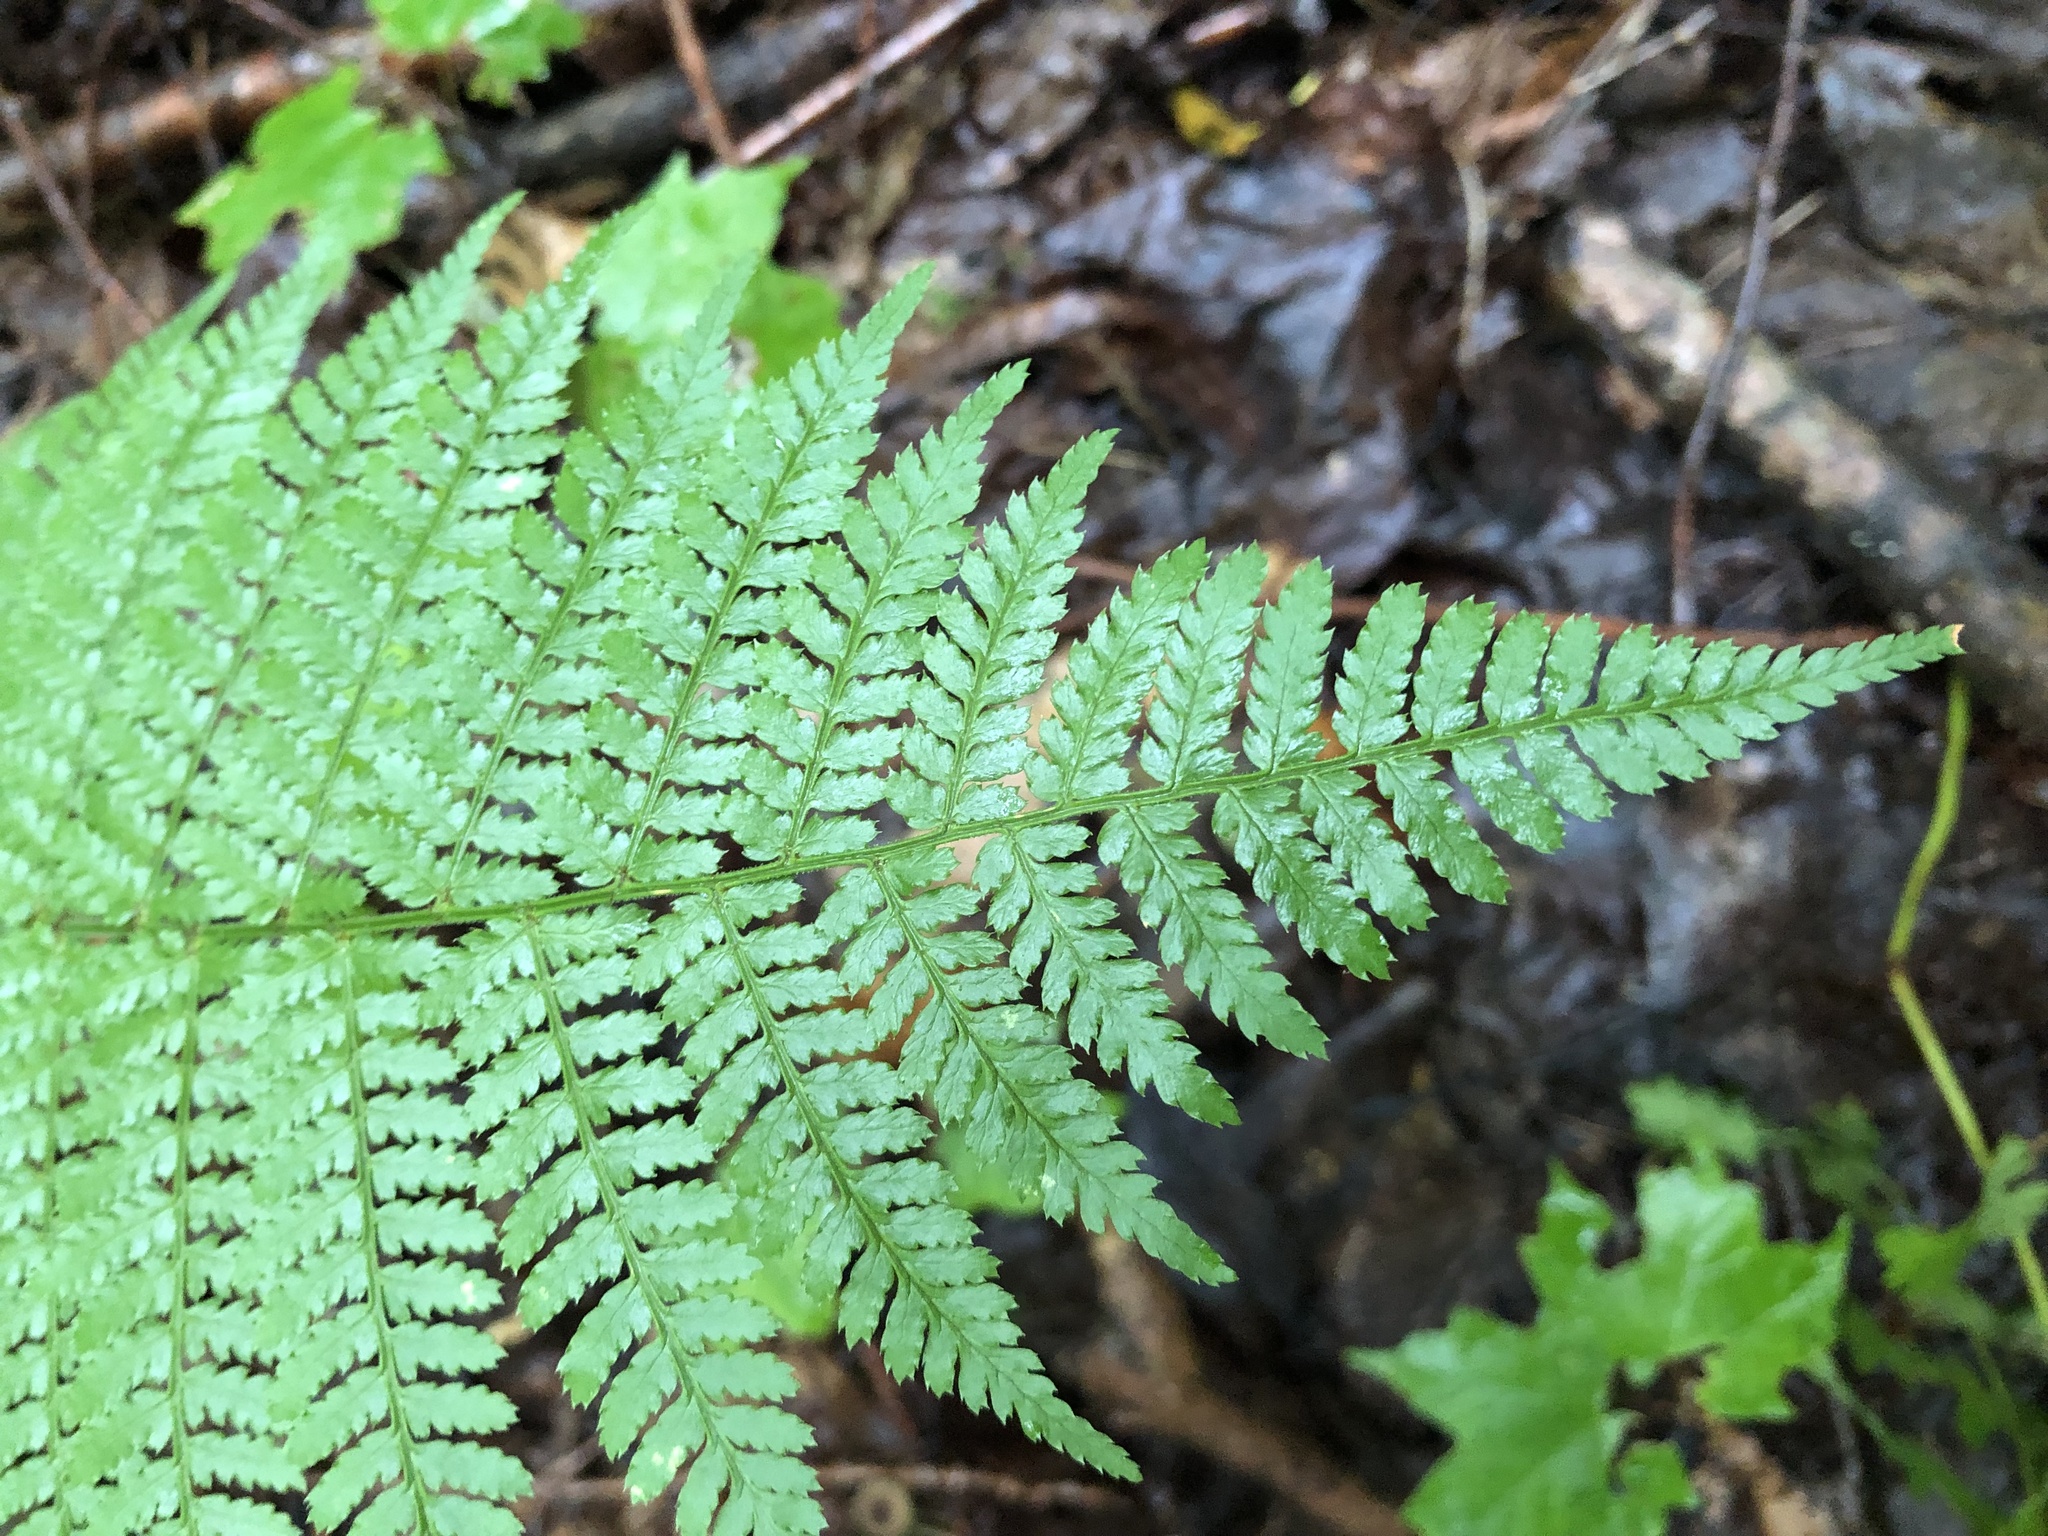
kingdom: Plantae
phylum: Tracheophyta
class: Polypodiopsida
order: Polypodiales
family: Dryopteridaceae
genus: Dryopteris
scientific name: Dryopteris intermedia
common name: Evergreen wood fern
